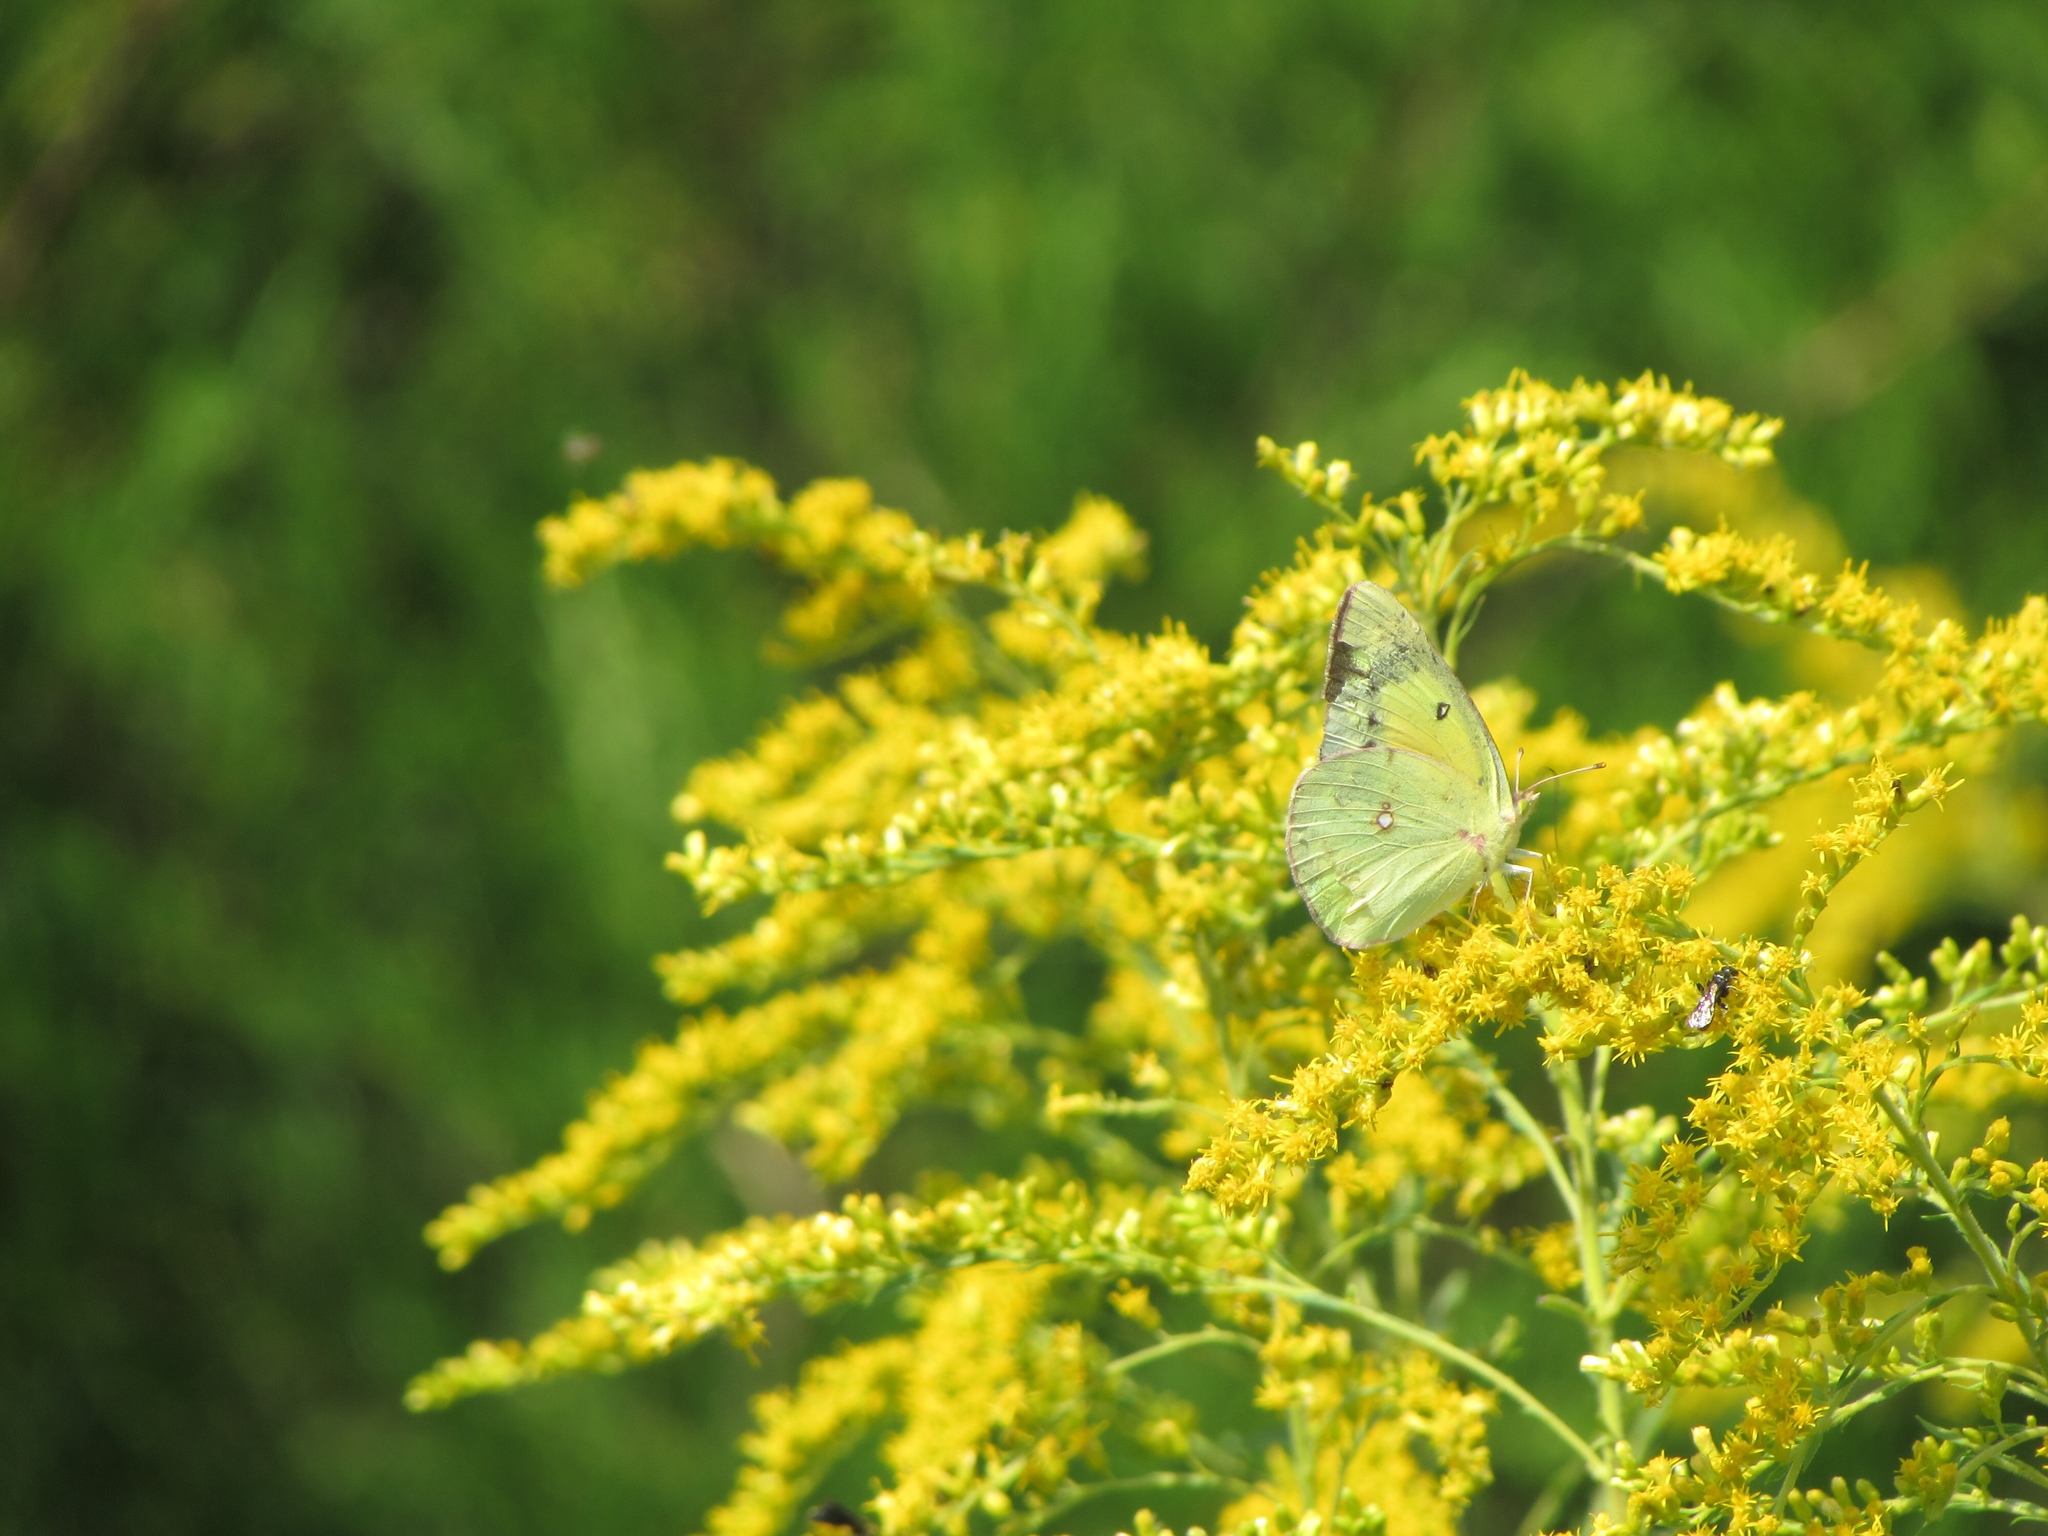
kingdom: Animalia
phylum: Arthropoda
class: Insecta
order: Lepidoptera
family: Pieridae
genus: Colias
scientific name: Colias eurytheme
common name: Alfalfa butterfly
